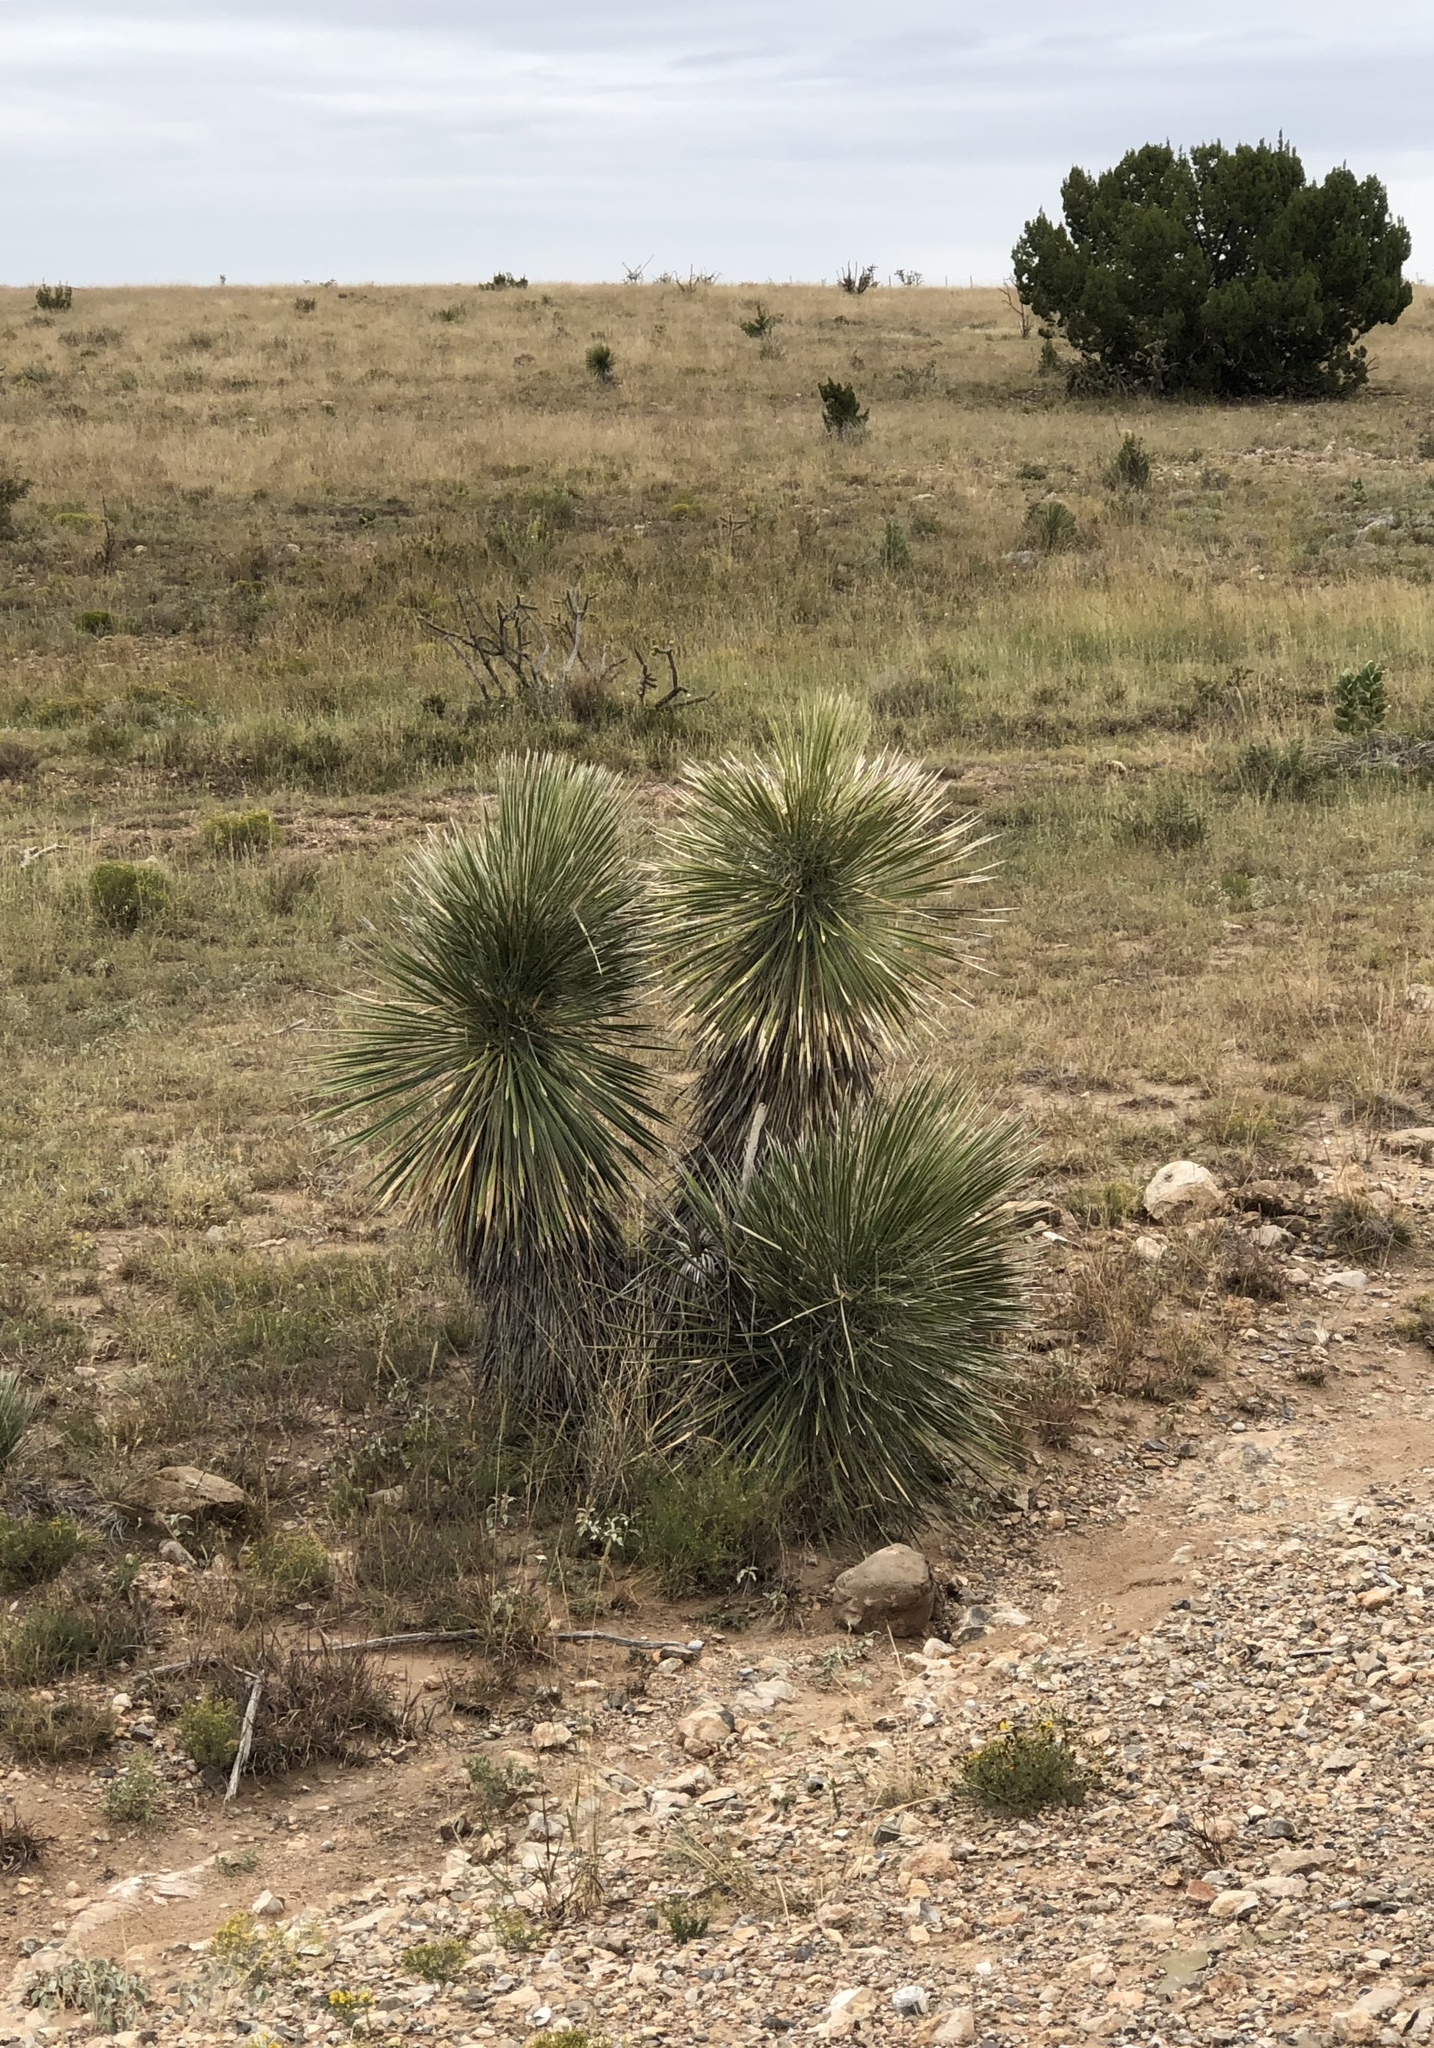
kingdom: Plantae
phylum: Tracheophyta
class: Liliopsida
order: Asparagales
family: Asparagaceae
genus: Yucca
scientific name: Yucca elata
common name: Palmella
